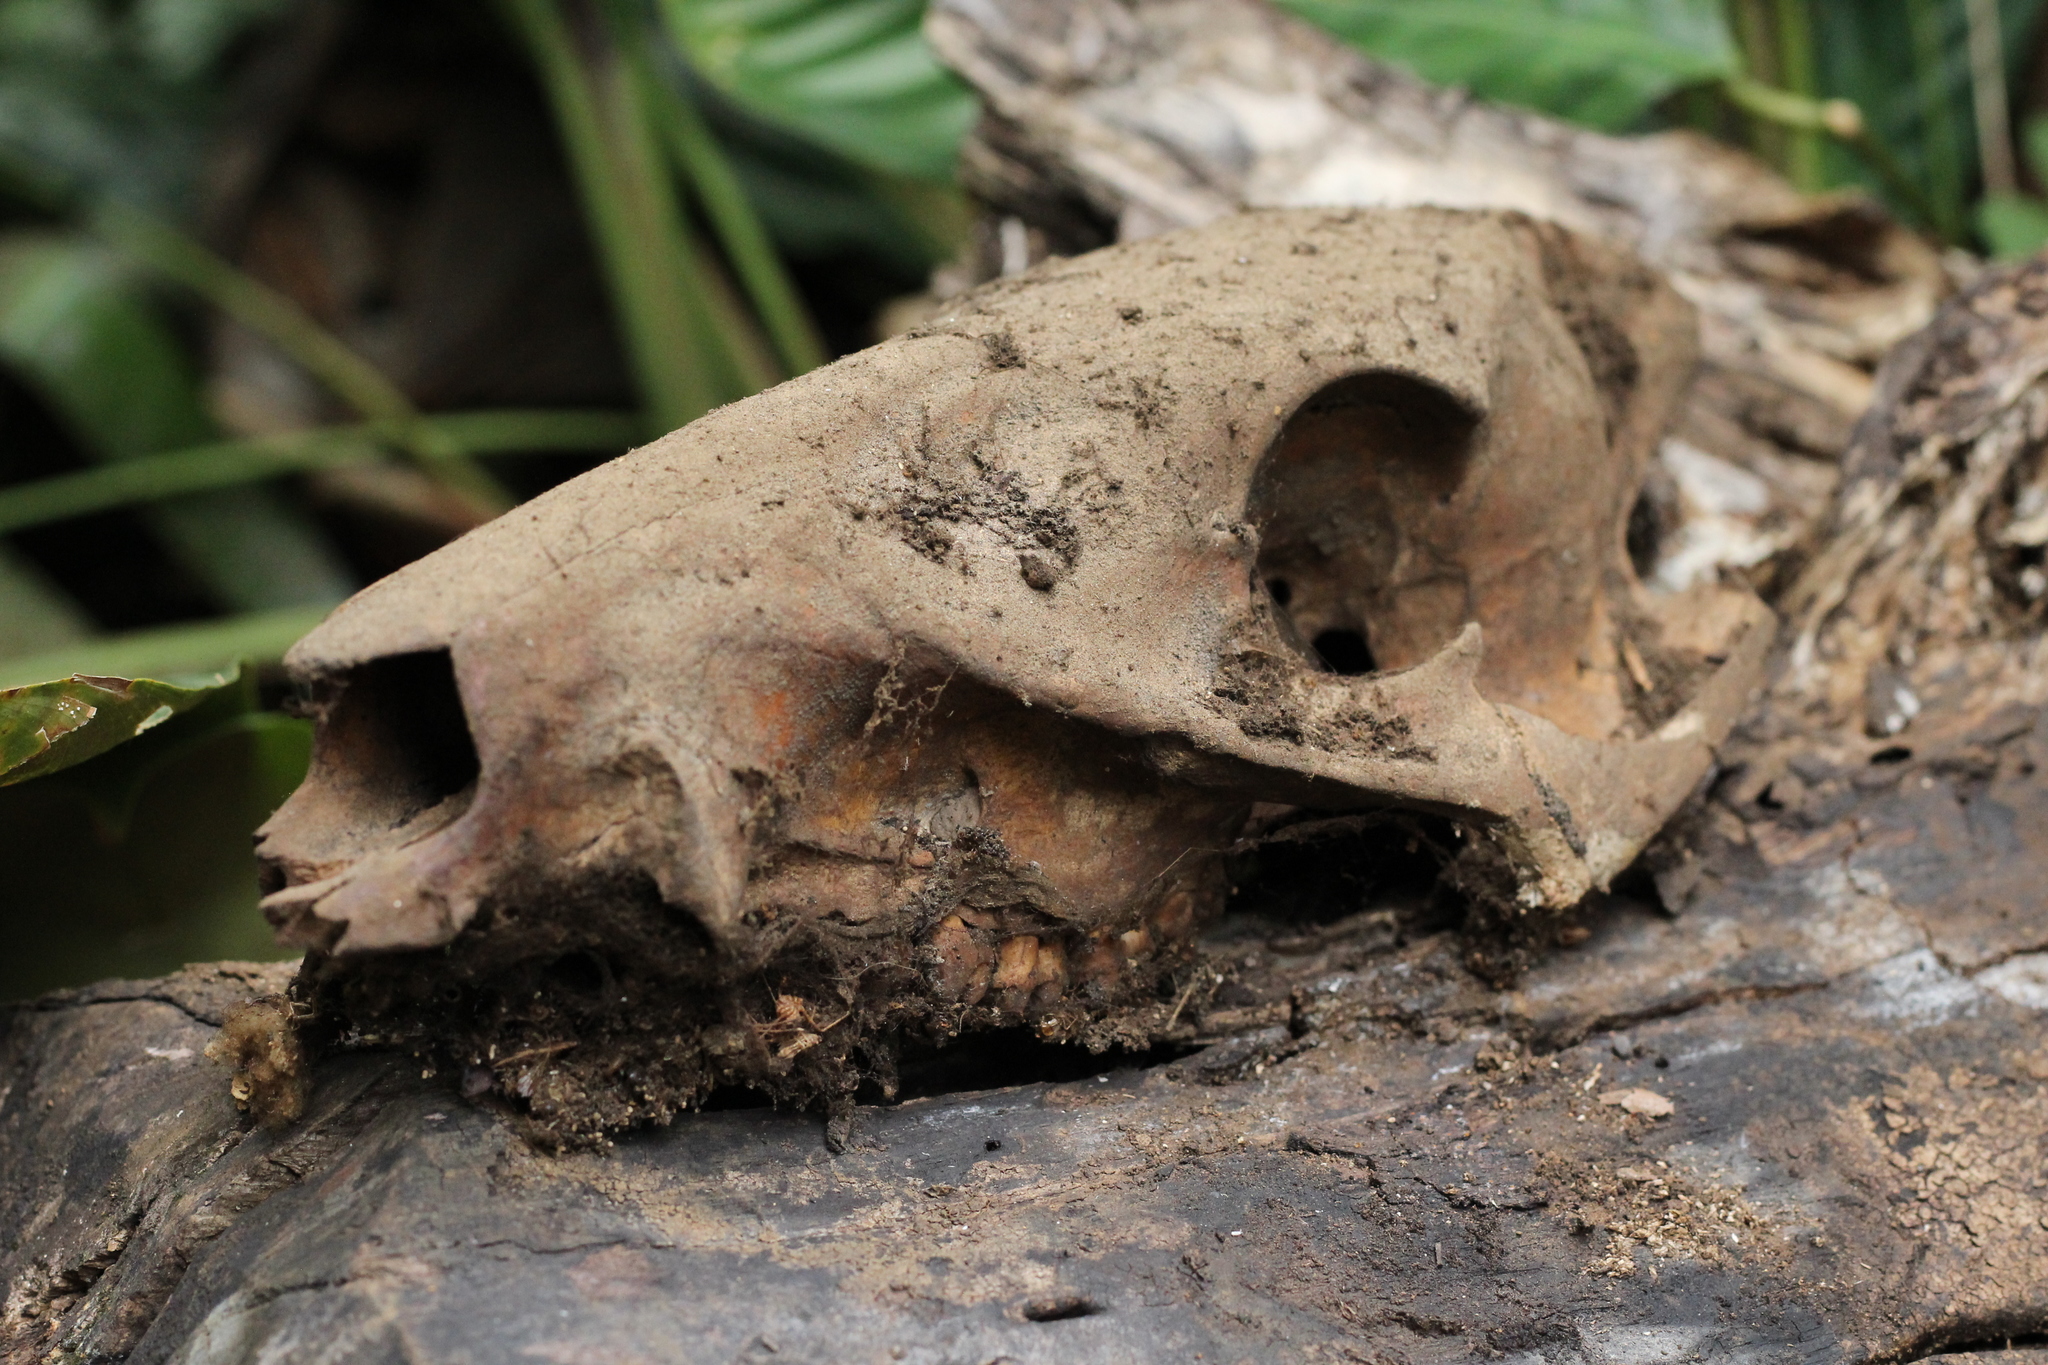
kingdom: Animalia
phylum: Chordata
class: Mammalia
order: Artiodactyla
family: Tayassuidae
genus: Pecari
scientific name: Pecari tajacu
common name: Collared peccary
